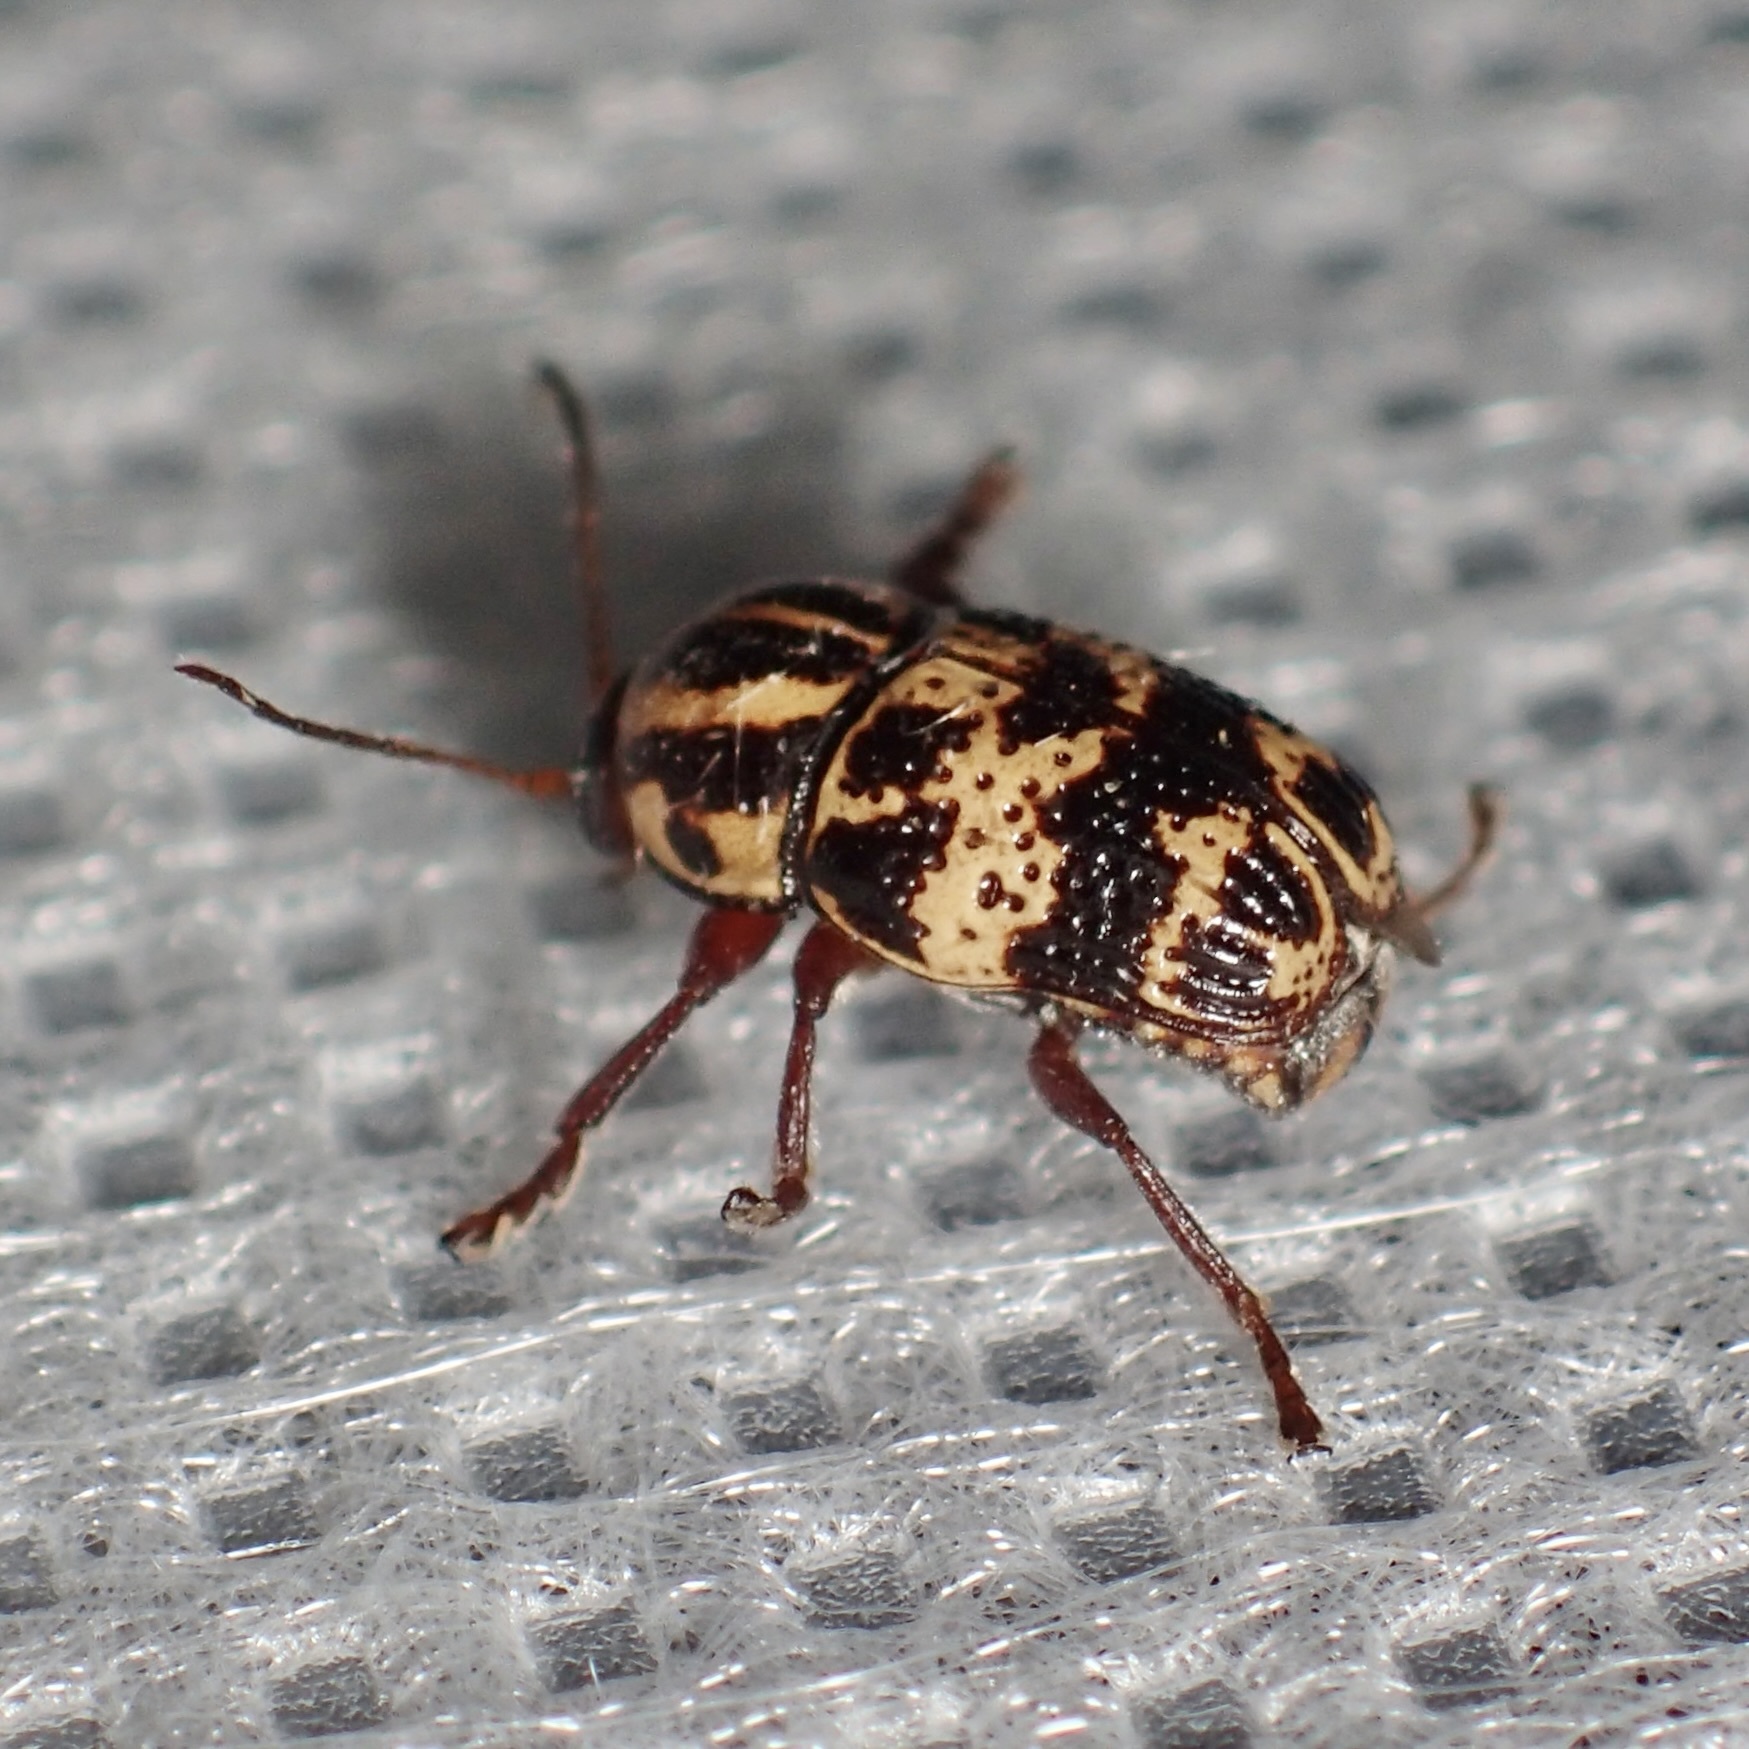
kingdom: Animalia
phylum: Arthropoda
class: Insecta
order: Coleoptera
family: Chrysomelidae
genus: Cryptocephalus
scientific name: Cryptocephalus maccus
